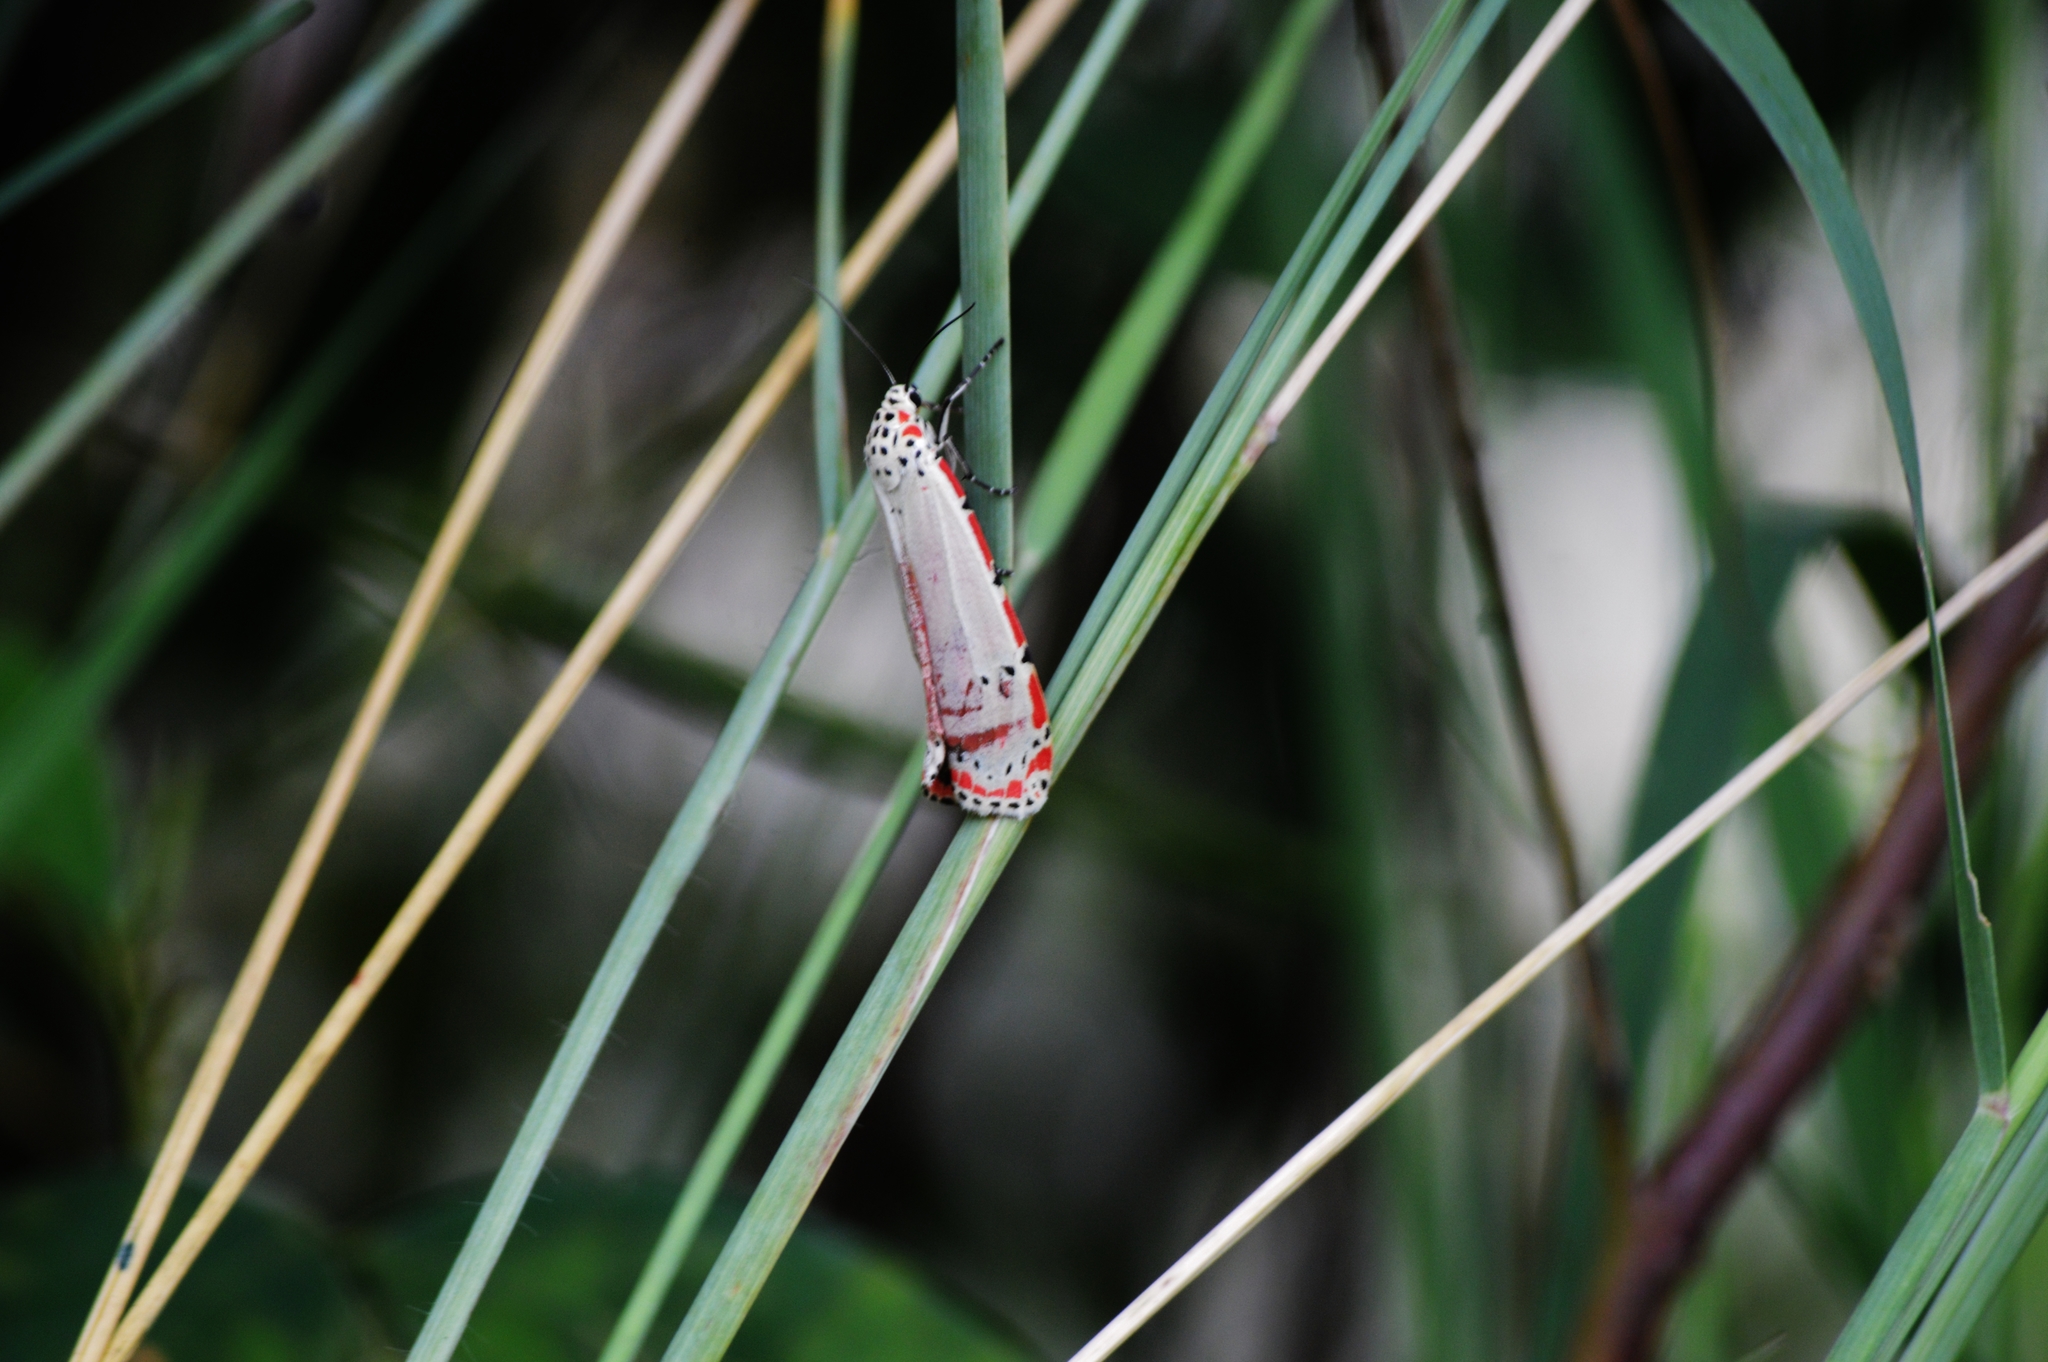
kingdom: Animalia
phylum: Arthropoda
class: Insecta
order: Lepidoptera
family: Erebidae
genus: Utetheisa
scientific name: Utetheisa ornatrix
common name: Beautiful utetheisa
